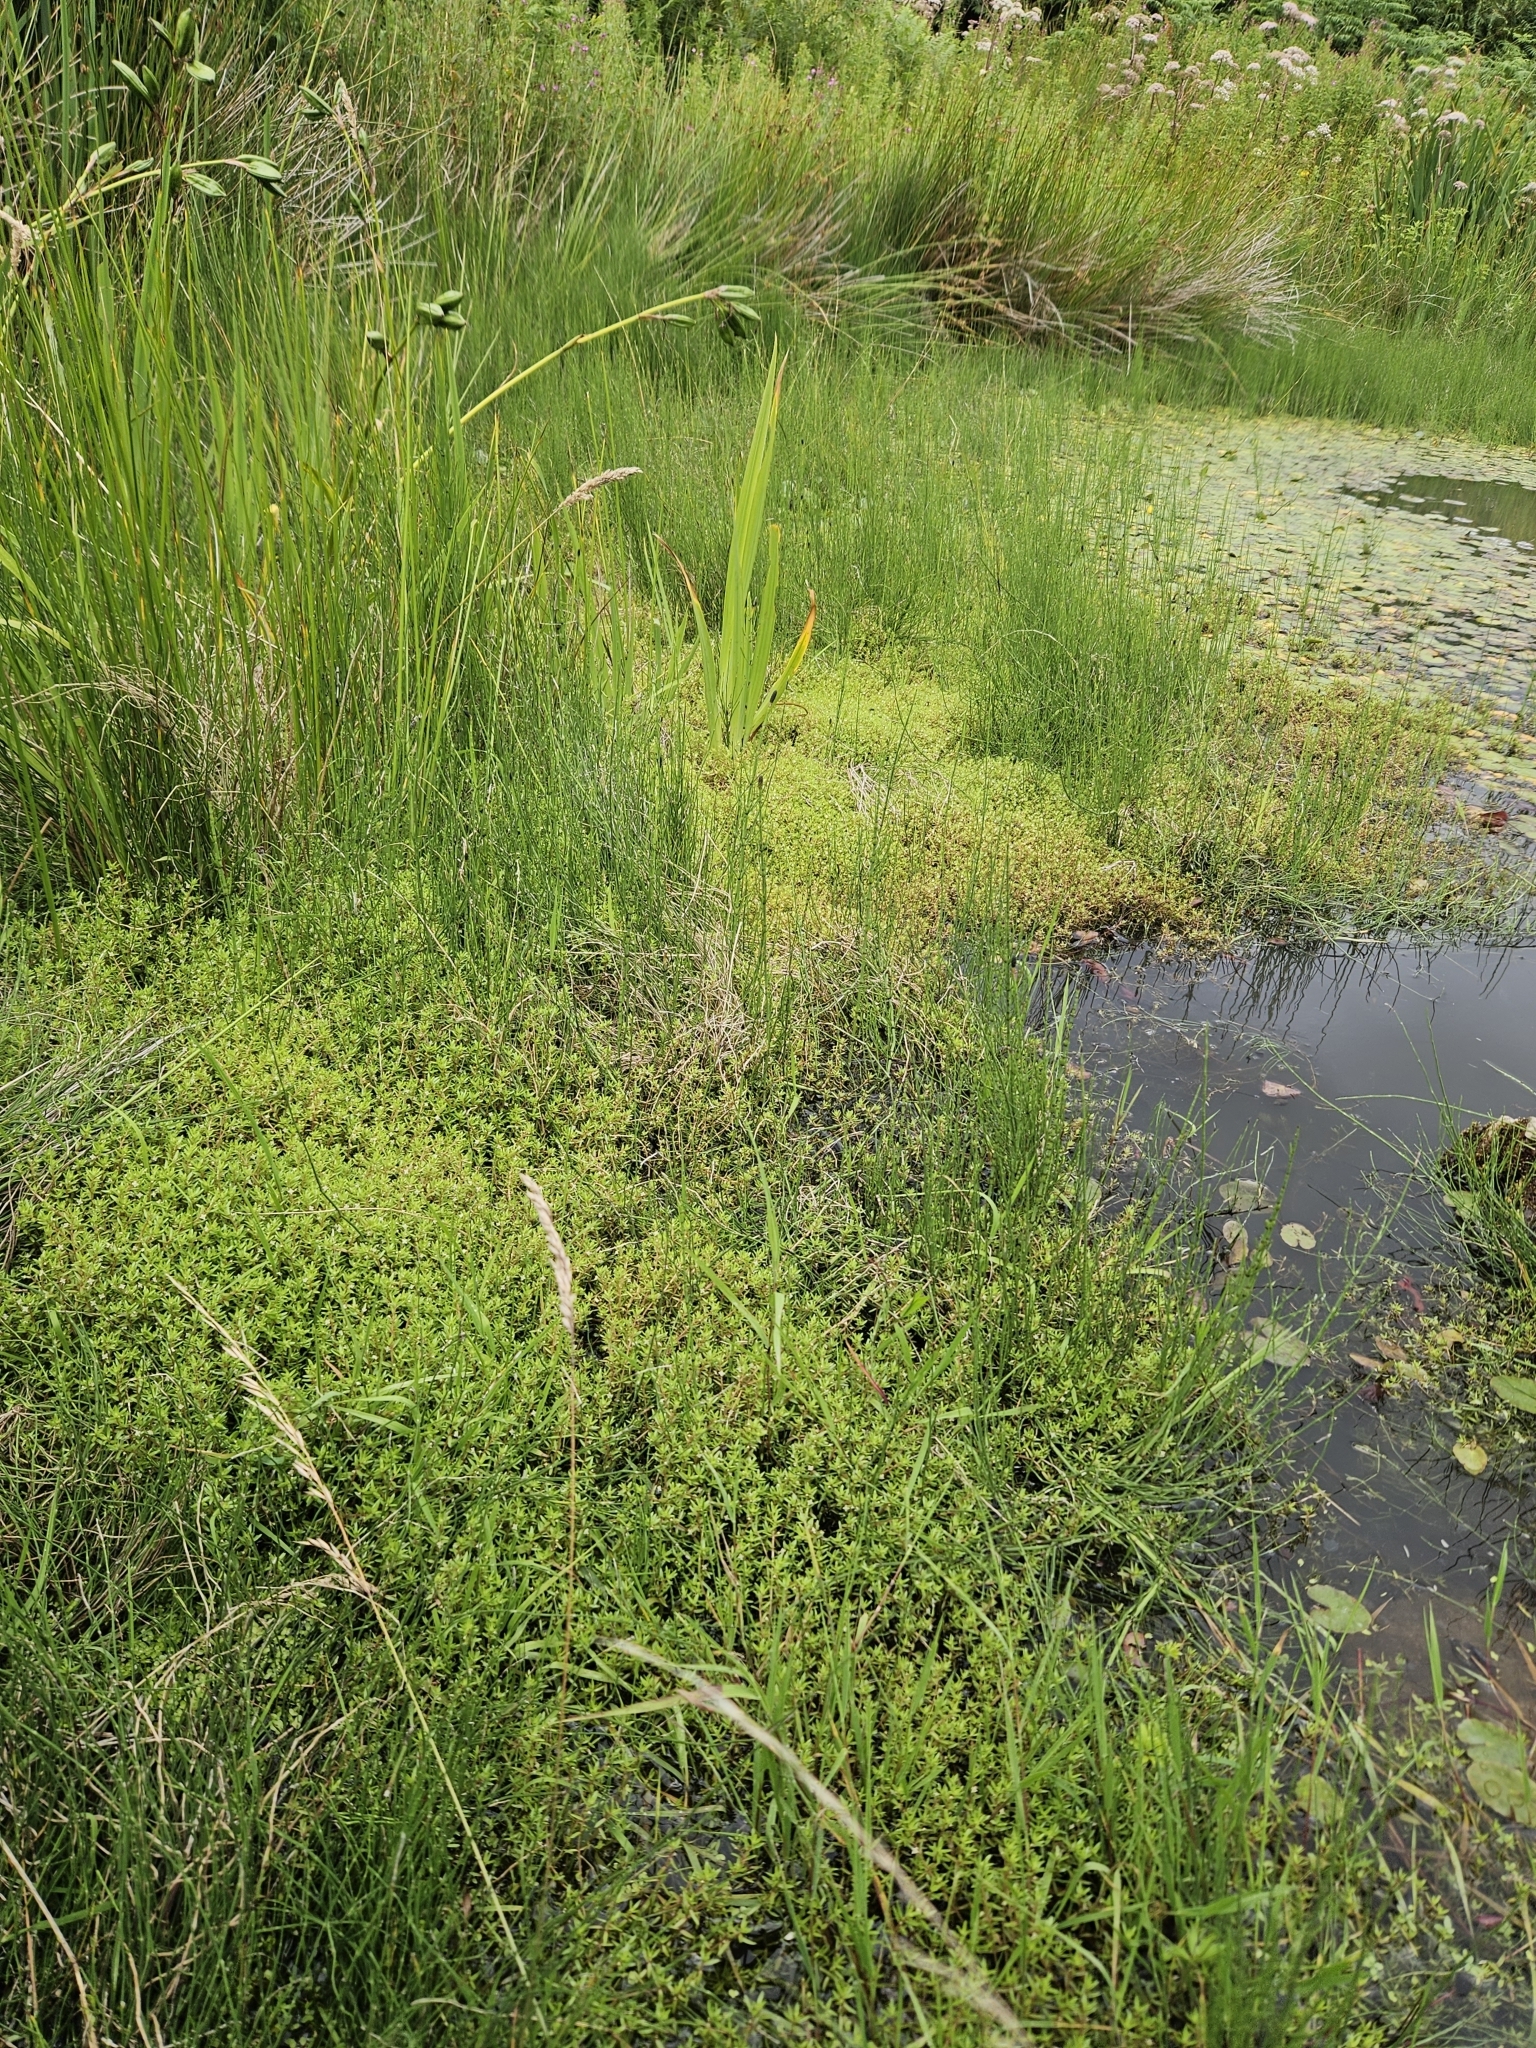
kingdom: Plantae
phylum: Tracheophyta
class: Magnoliopsida
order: Saxifragales
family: Crassulaceae
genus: Crassula
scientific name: Crassula helmsii
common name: New zealand pigmyweed
